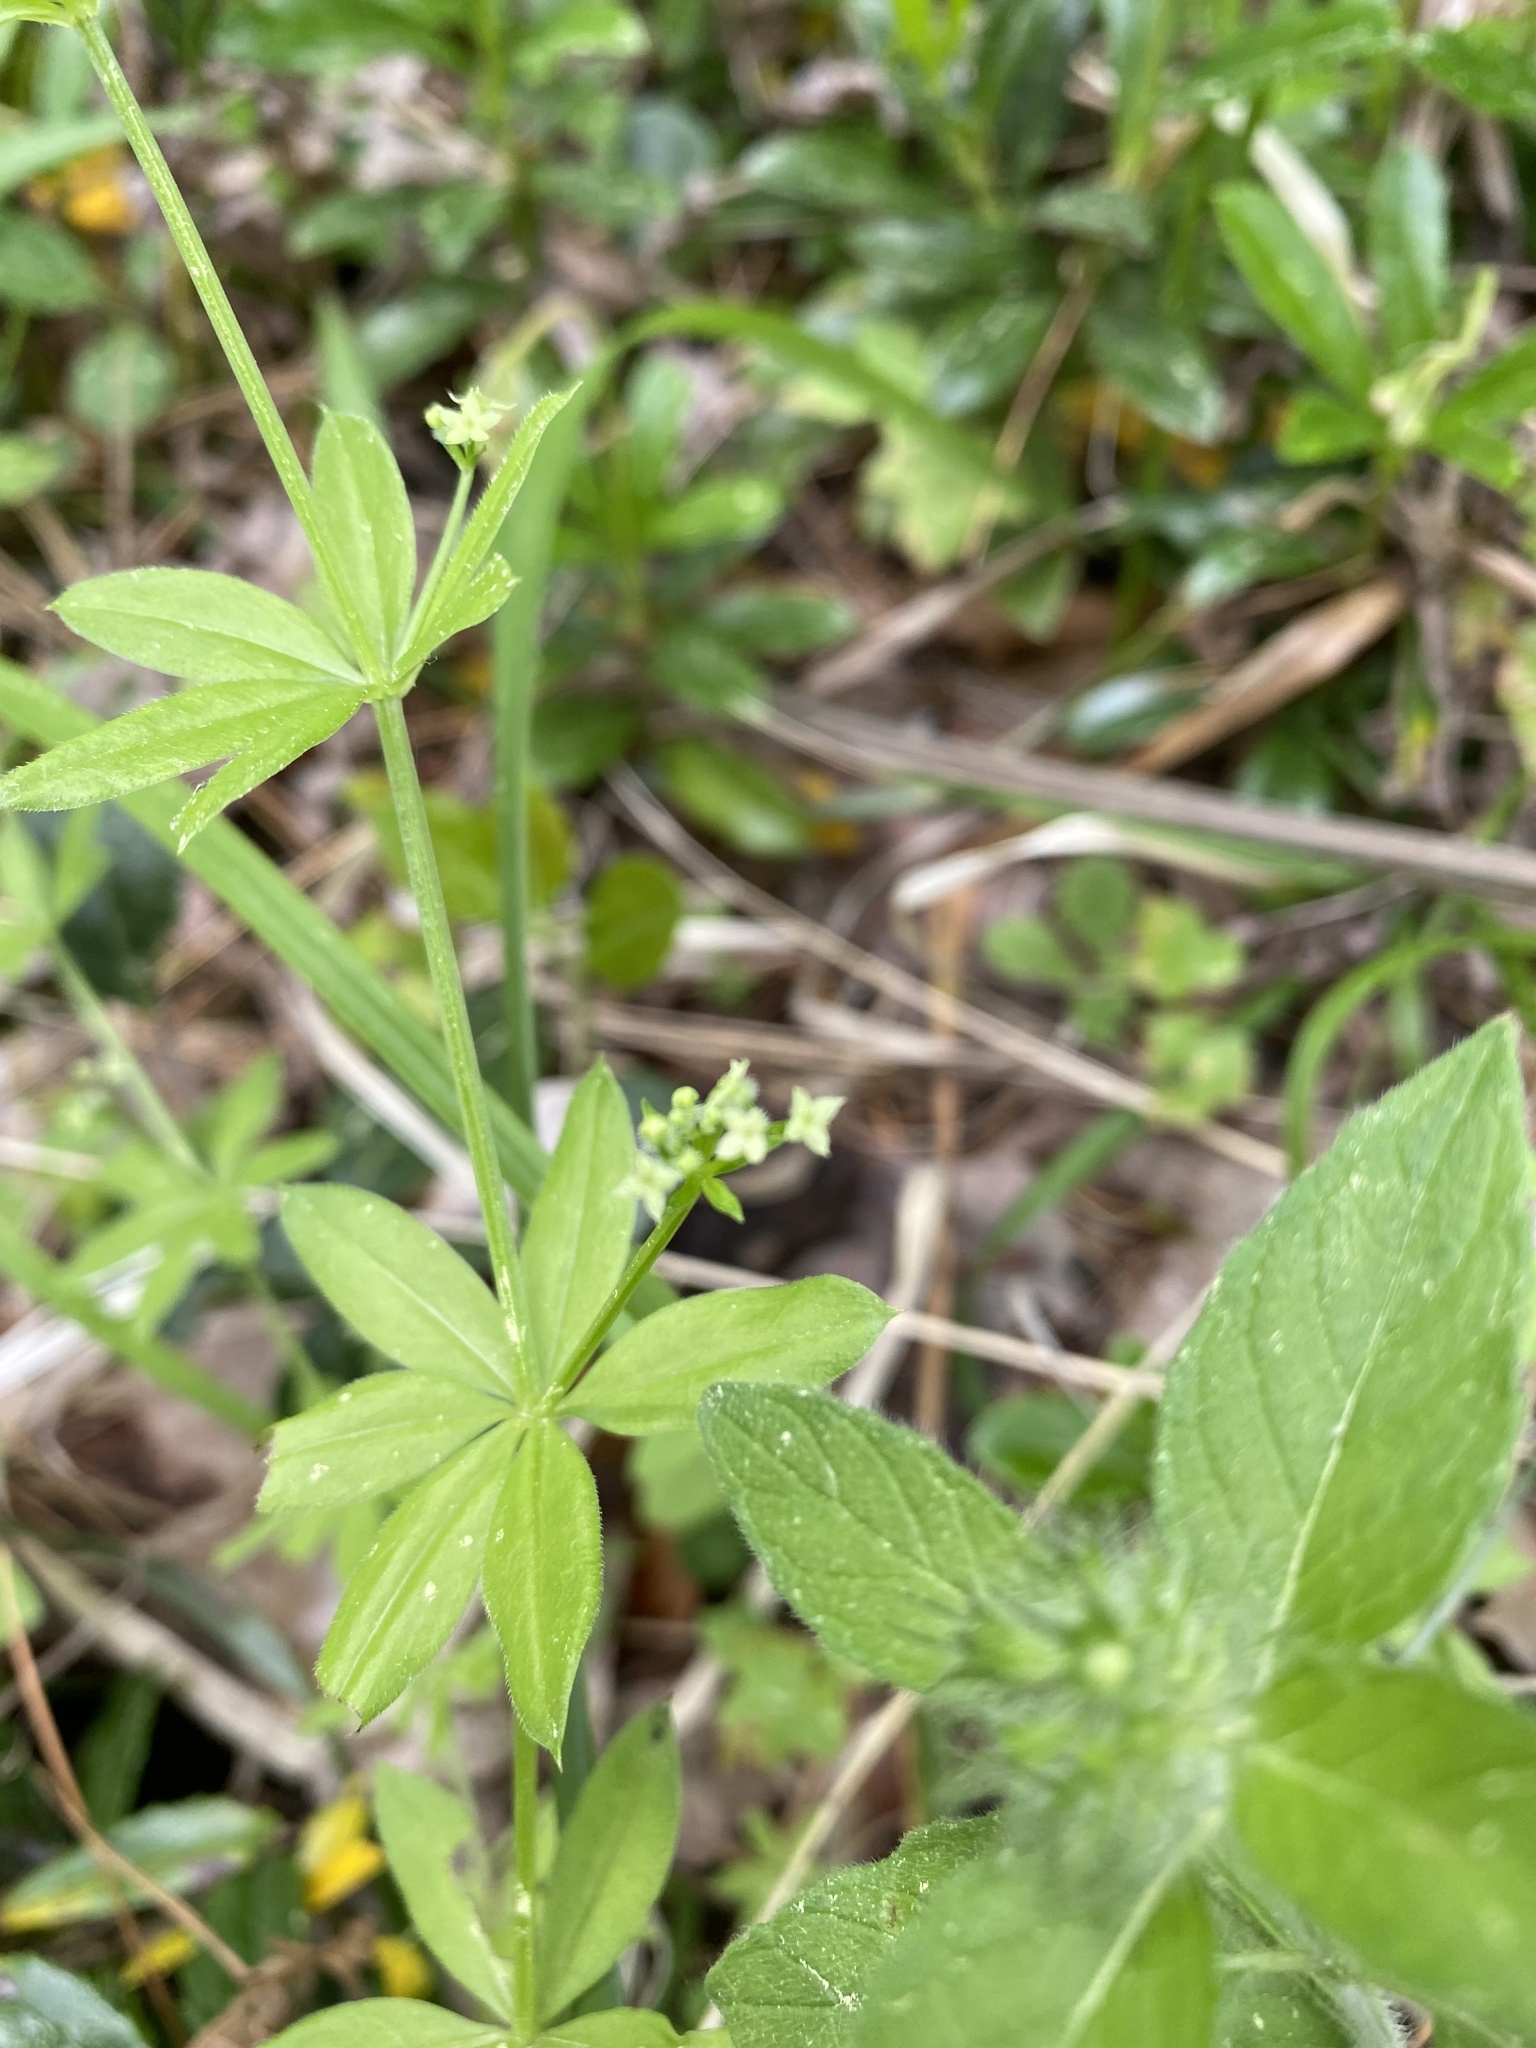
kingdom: Plantae
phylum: Tracheophyta
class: Magnoliopsida
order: Gentianales
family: Rubiaceae
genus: Galium
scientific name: Galium triflorum
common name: Fragrant bedstraw
